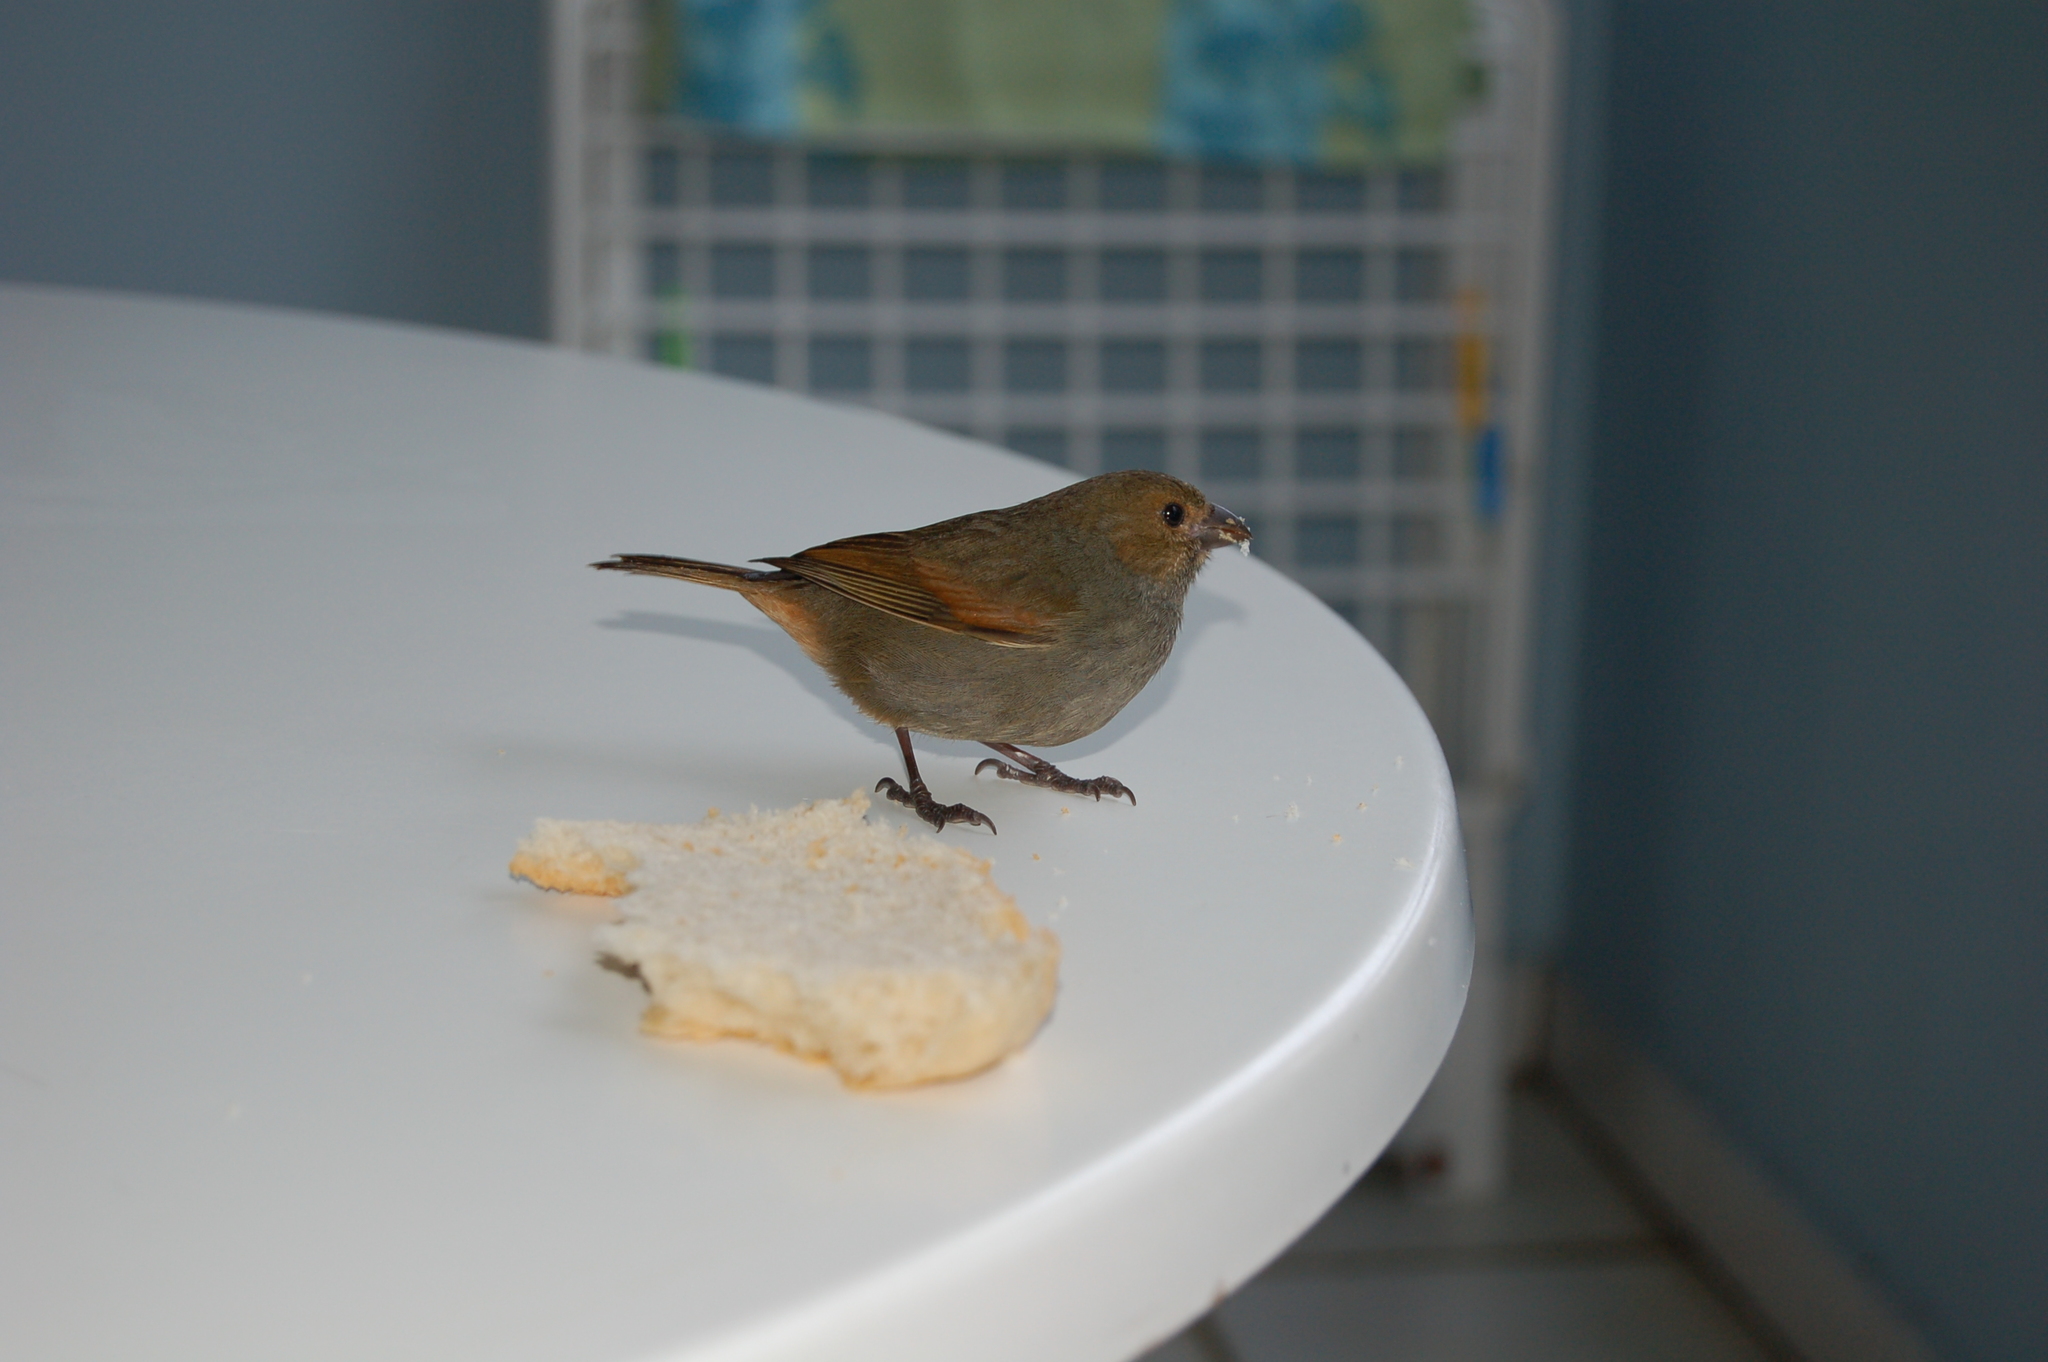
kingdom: Animalia
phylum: Chordata
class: Aves
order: Passeriformes
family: Thraupidae
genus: Loxigilla
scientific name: Loxigilla noctis
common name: Lesser antillean bullfinch
